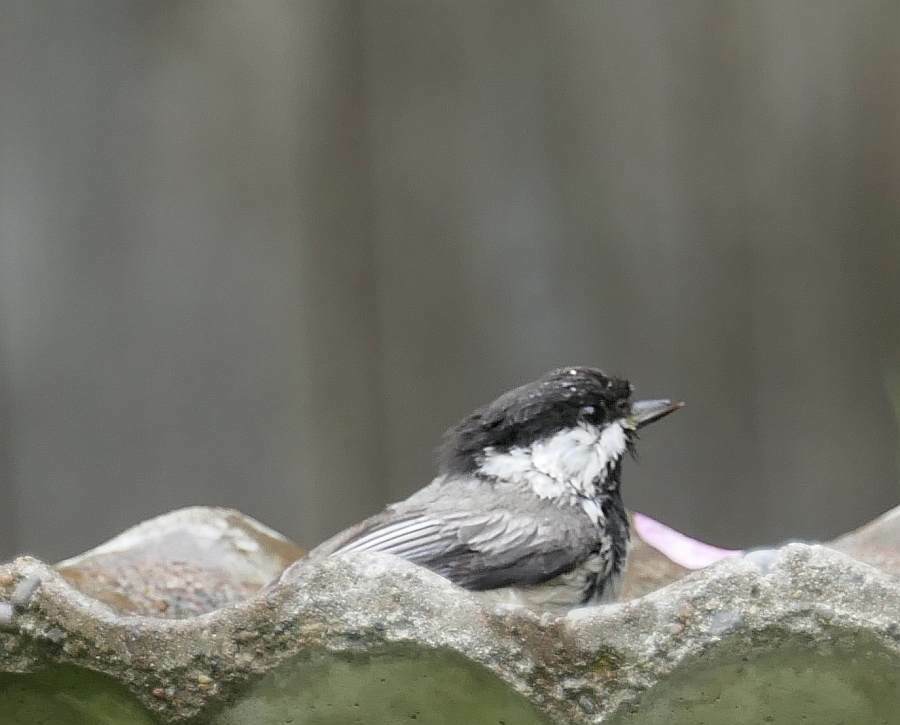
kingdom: Animalia
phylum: Chordata
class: Aves
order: Passeriformes
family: Paridae
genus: Poecile
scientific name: Poecile atricapillus
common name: Black-capped chickadee
